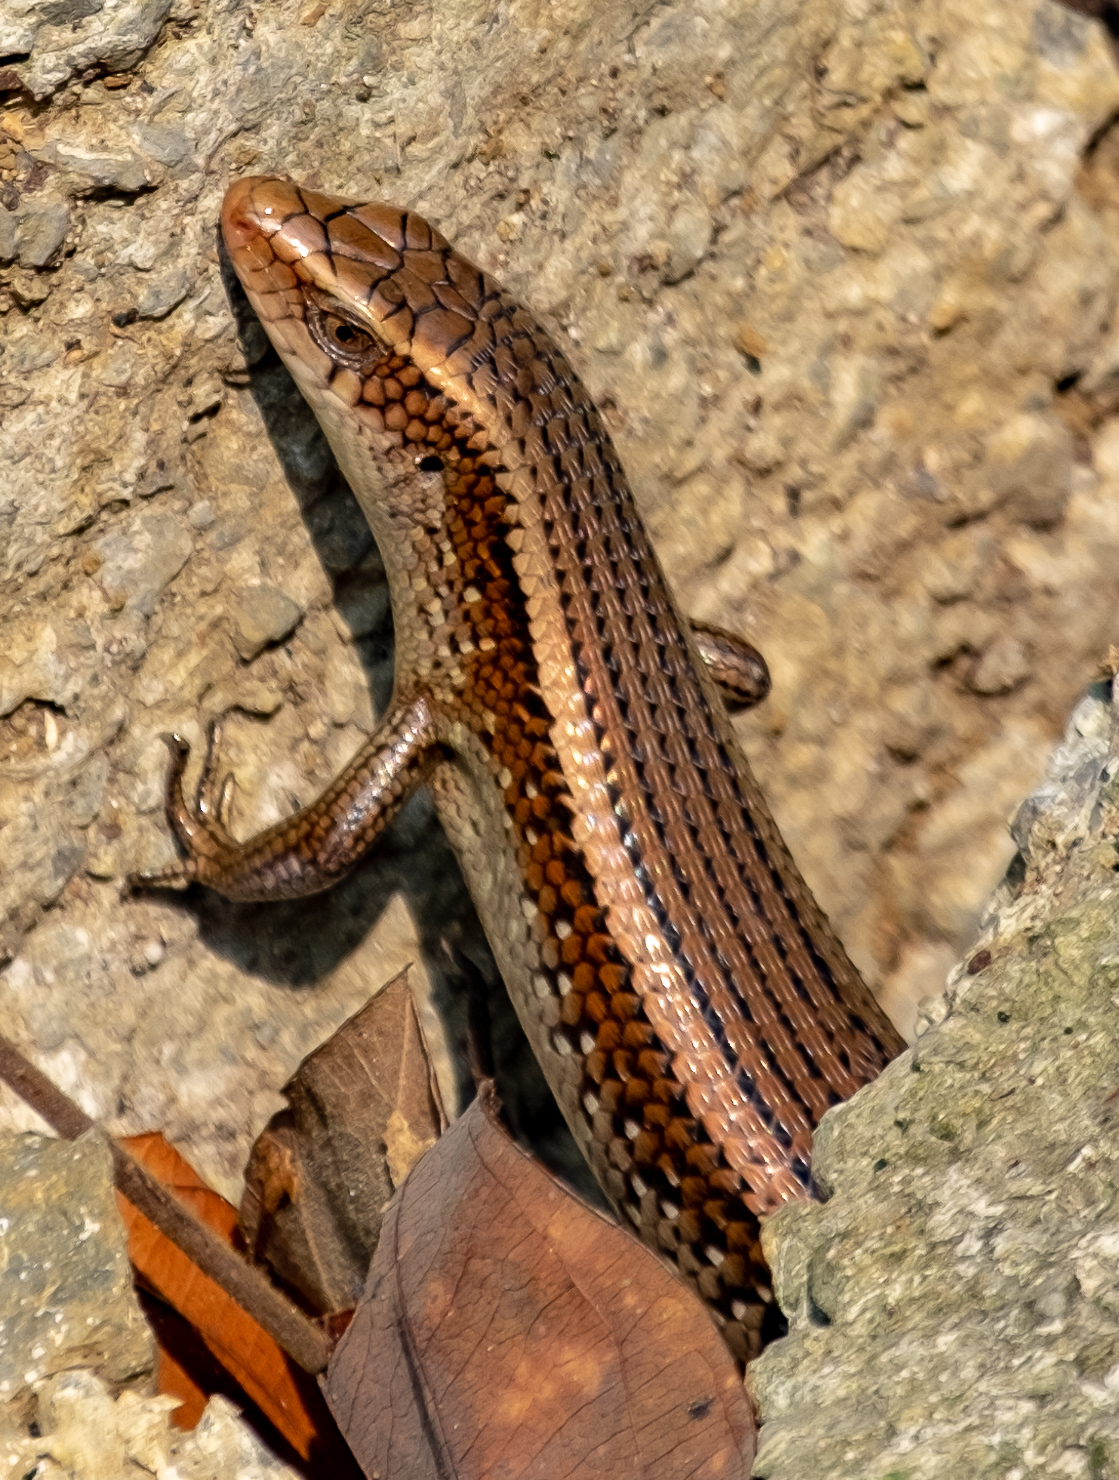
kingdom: Animalia
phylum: Chordata
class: Squamata
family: Scincidae
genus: Eutropis
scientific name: Eutropis multifasciata
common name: Common mabuya
